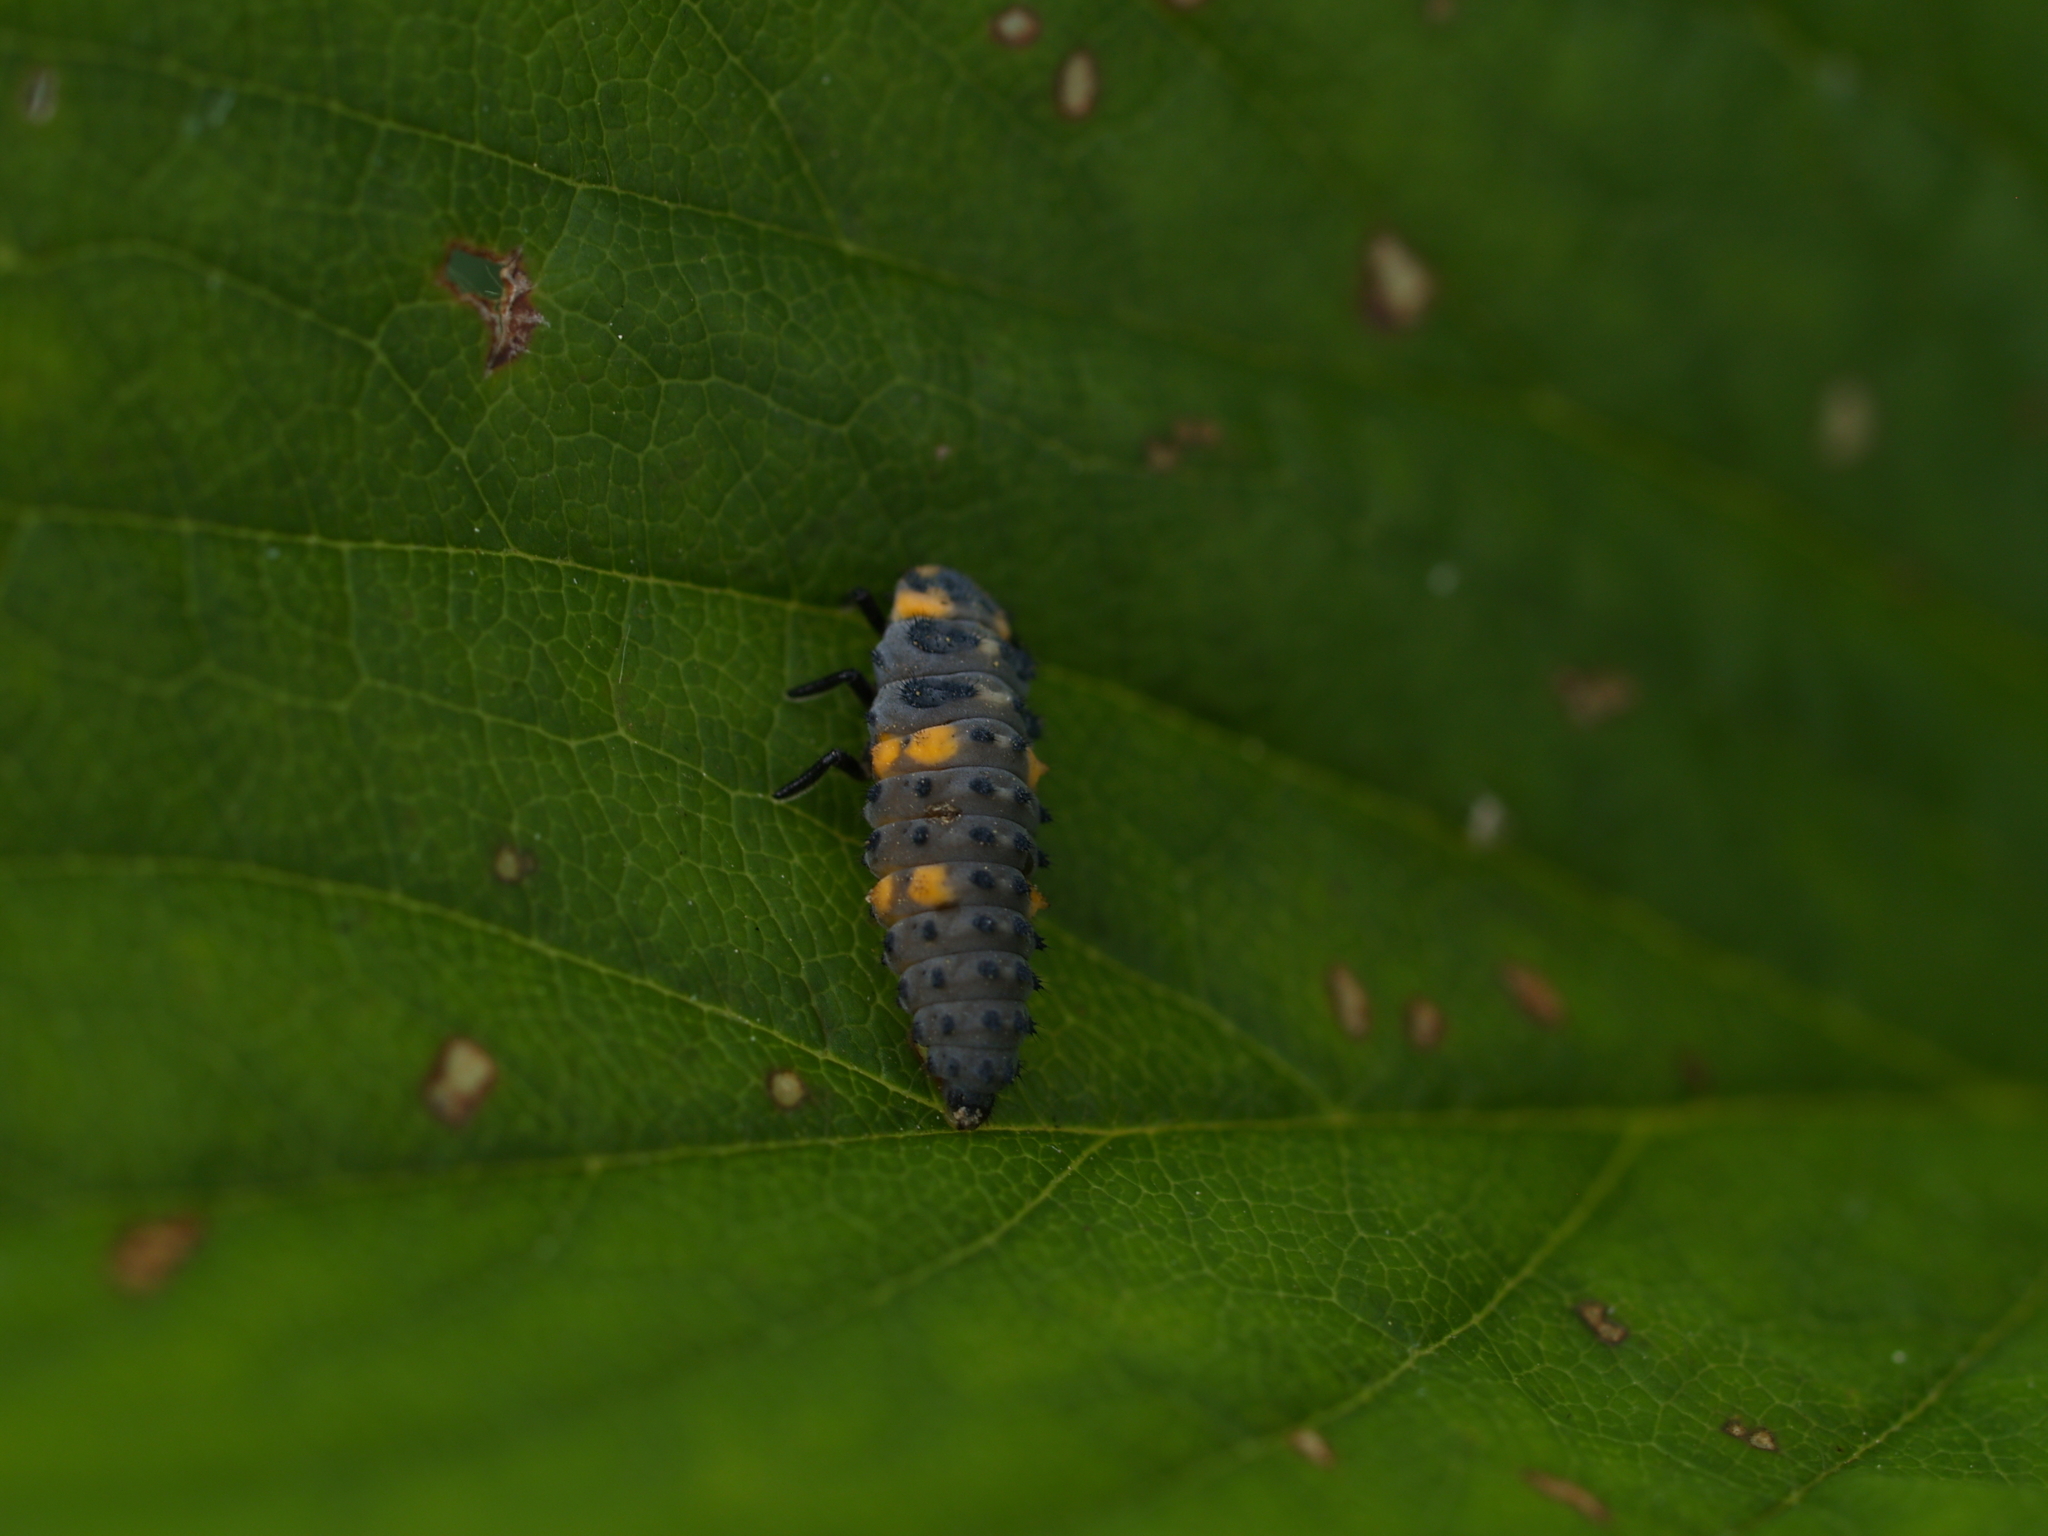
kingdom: Animalia
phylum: Arthropoda
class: Insecta
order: Coleoptera
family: Coccinellidae
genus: Coccinella
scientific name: Coccinella septempunctata
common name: Sevenspotted lady beetle
